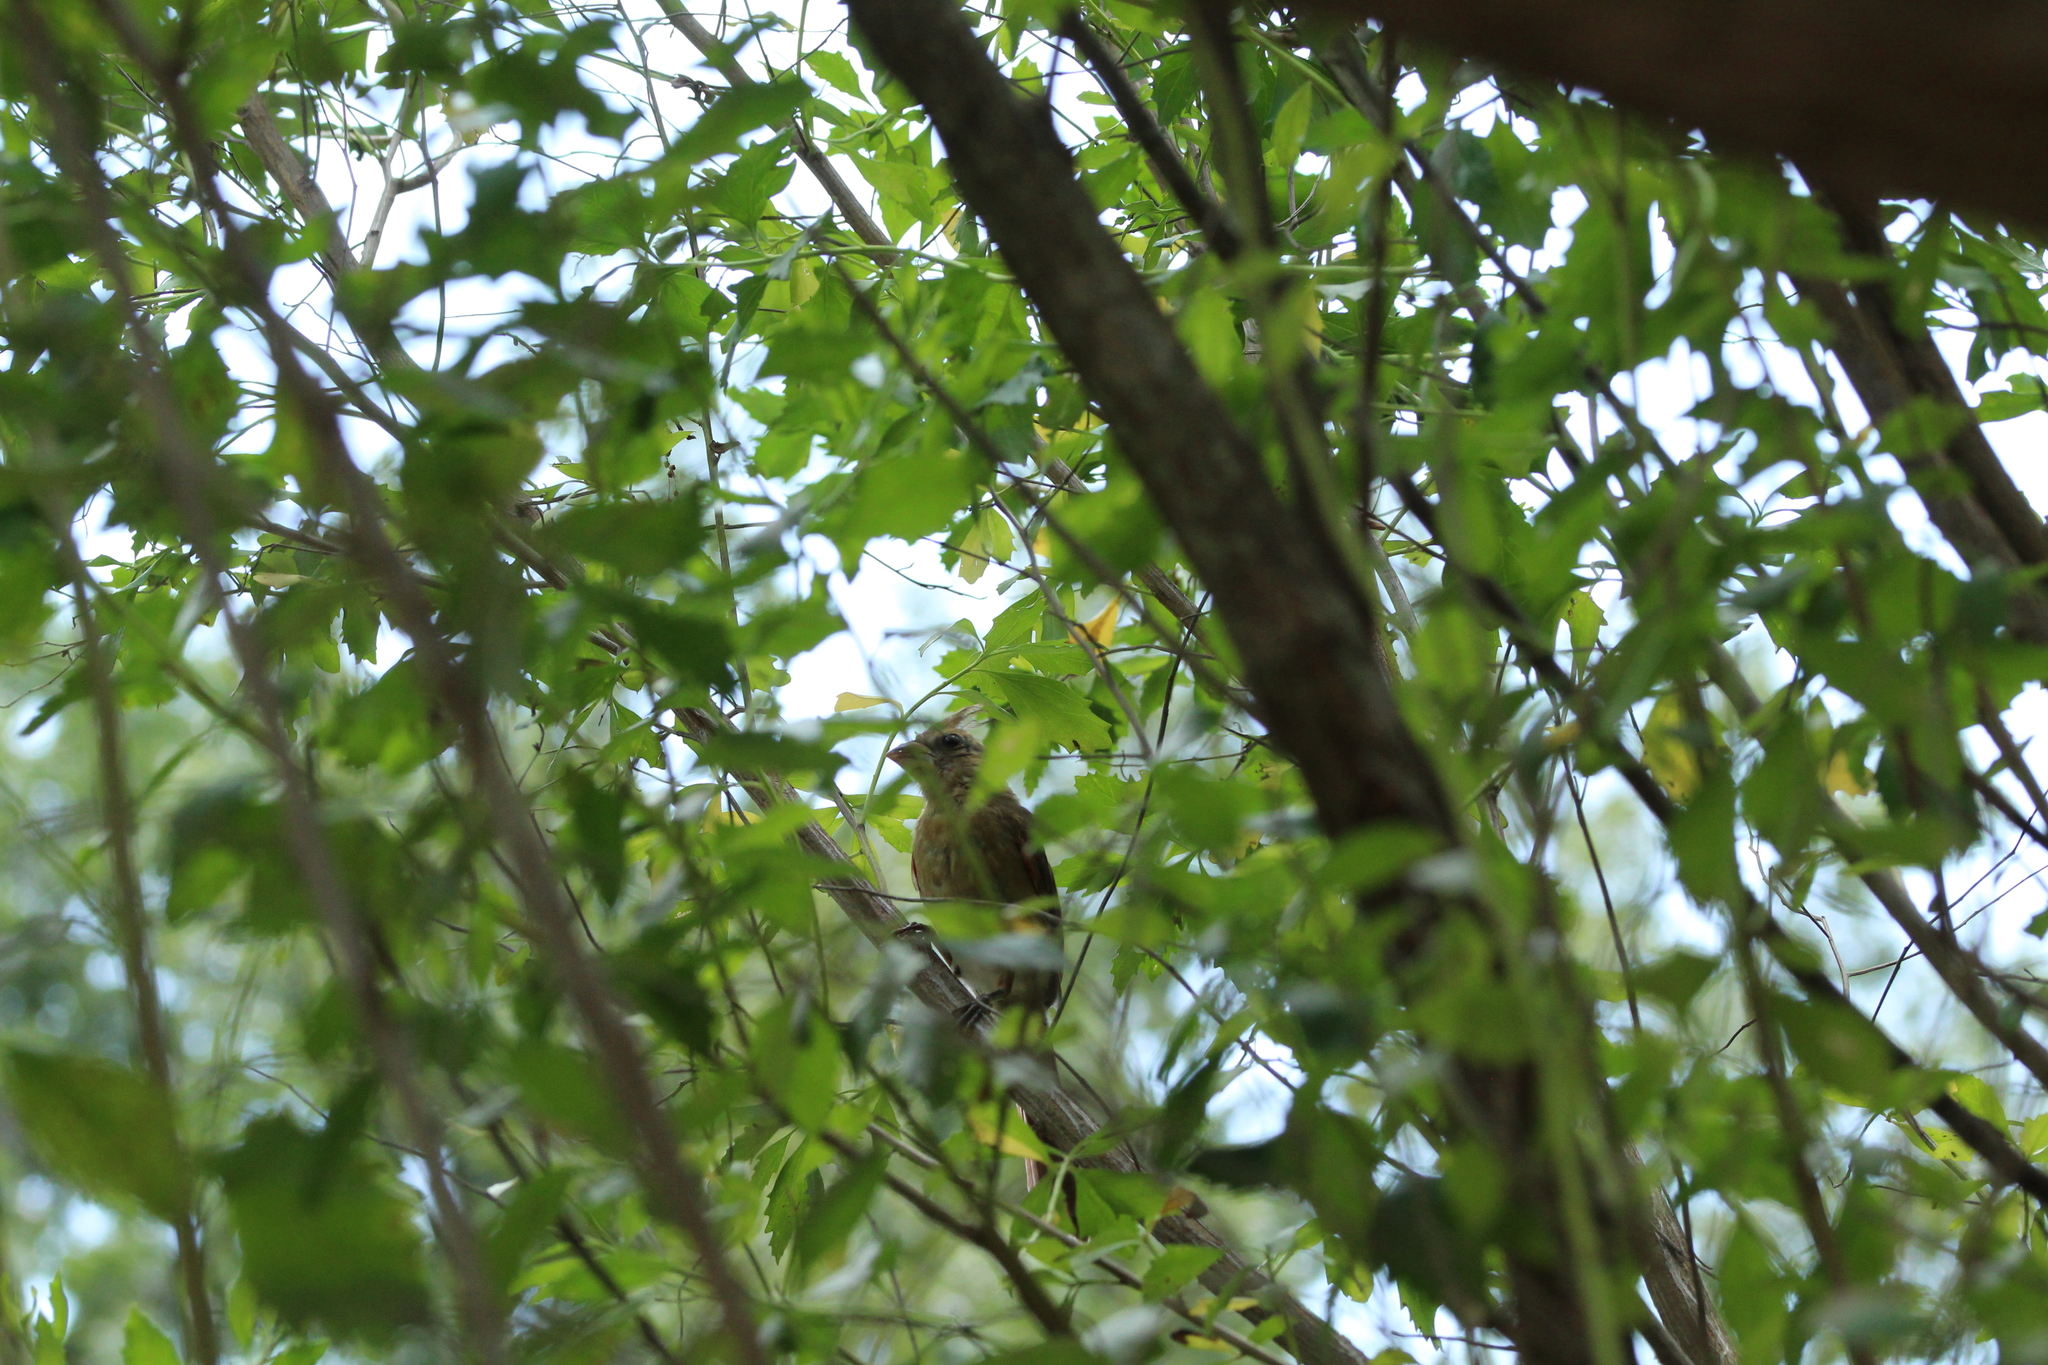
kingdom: Animalia
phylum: Chordata
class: Aves
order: Passeriformes
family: Cardinalidae
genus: Cardinalis
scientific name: Cardinalis cardinalis
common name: Northern cardinal
